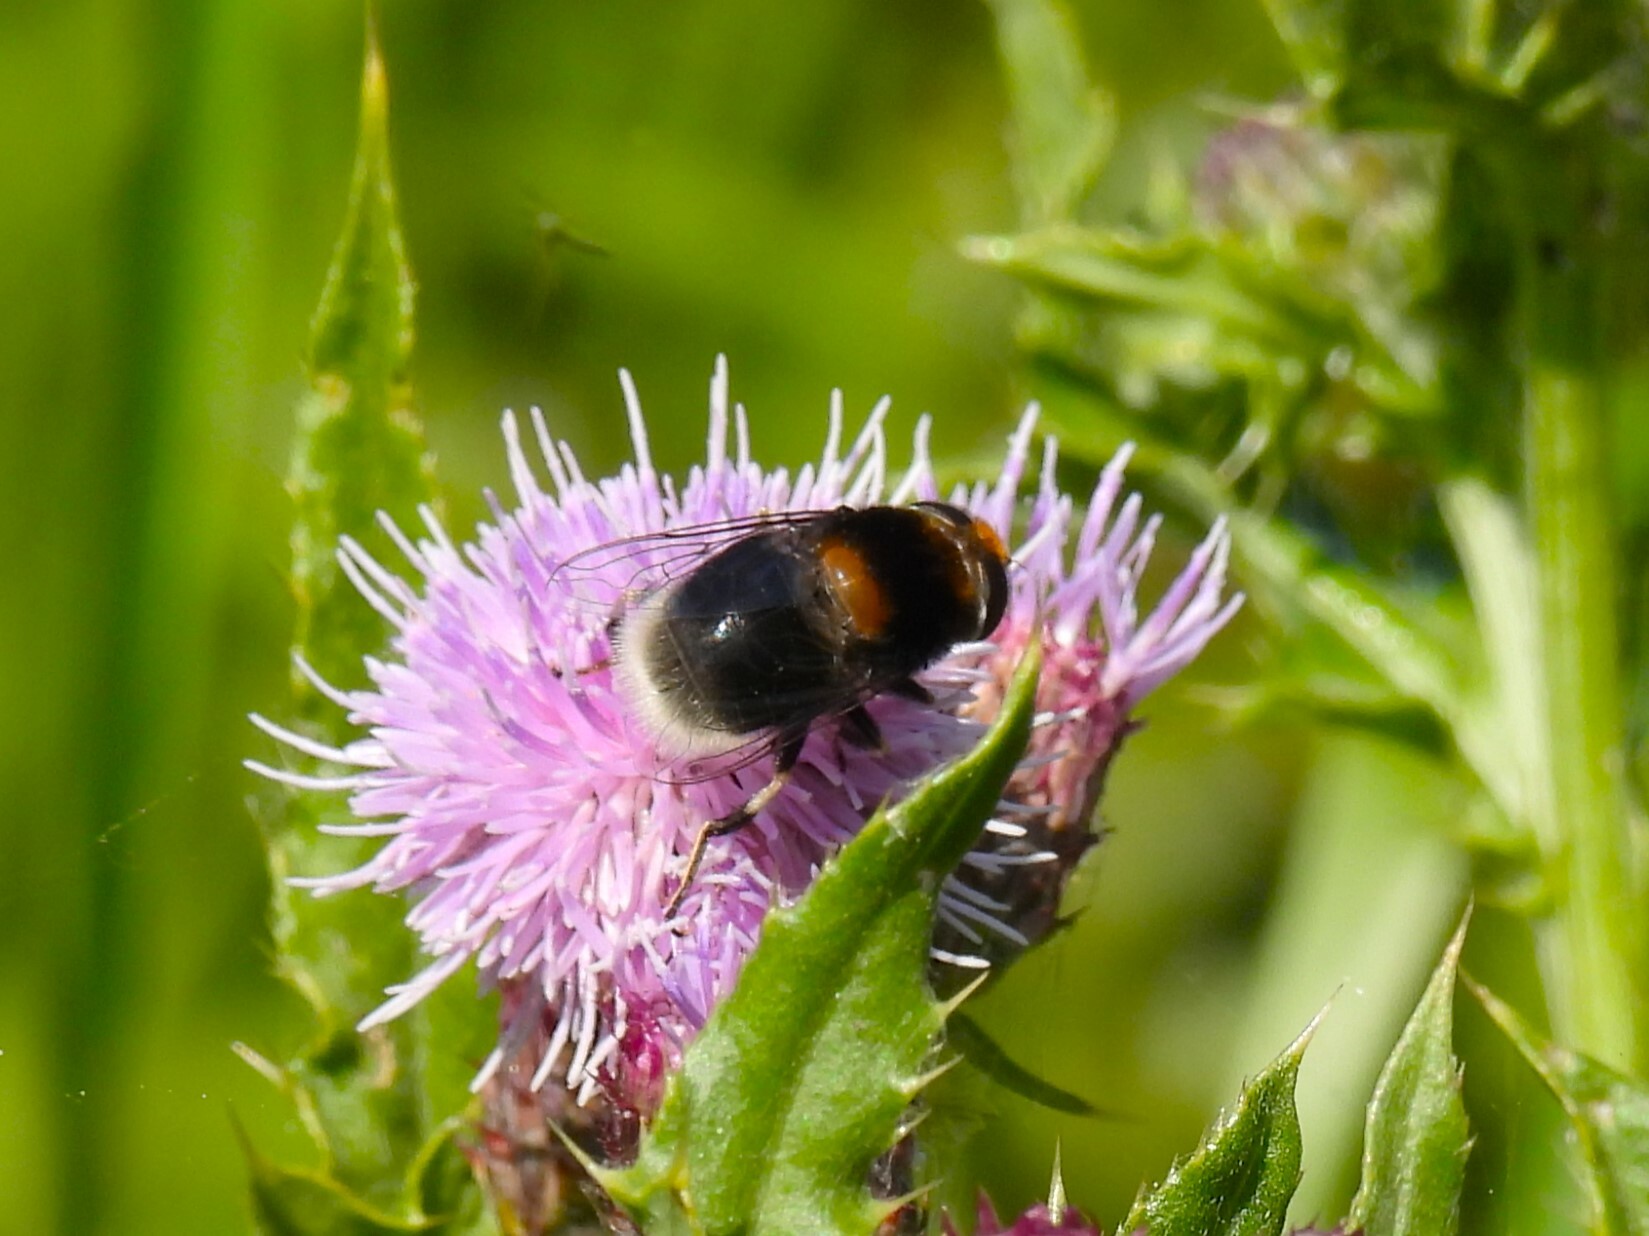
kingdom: Animalia
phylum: Arthropoda
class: Insecta
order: Diptera
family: Syrphidae
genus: Eristalis
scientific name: Eristalis intricaria
